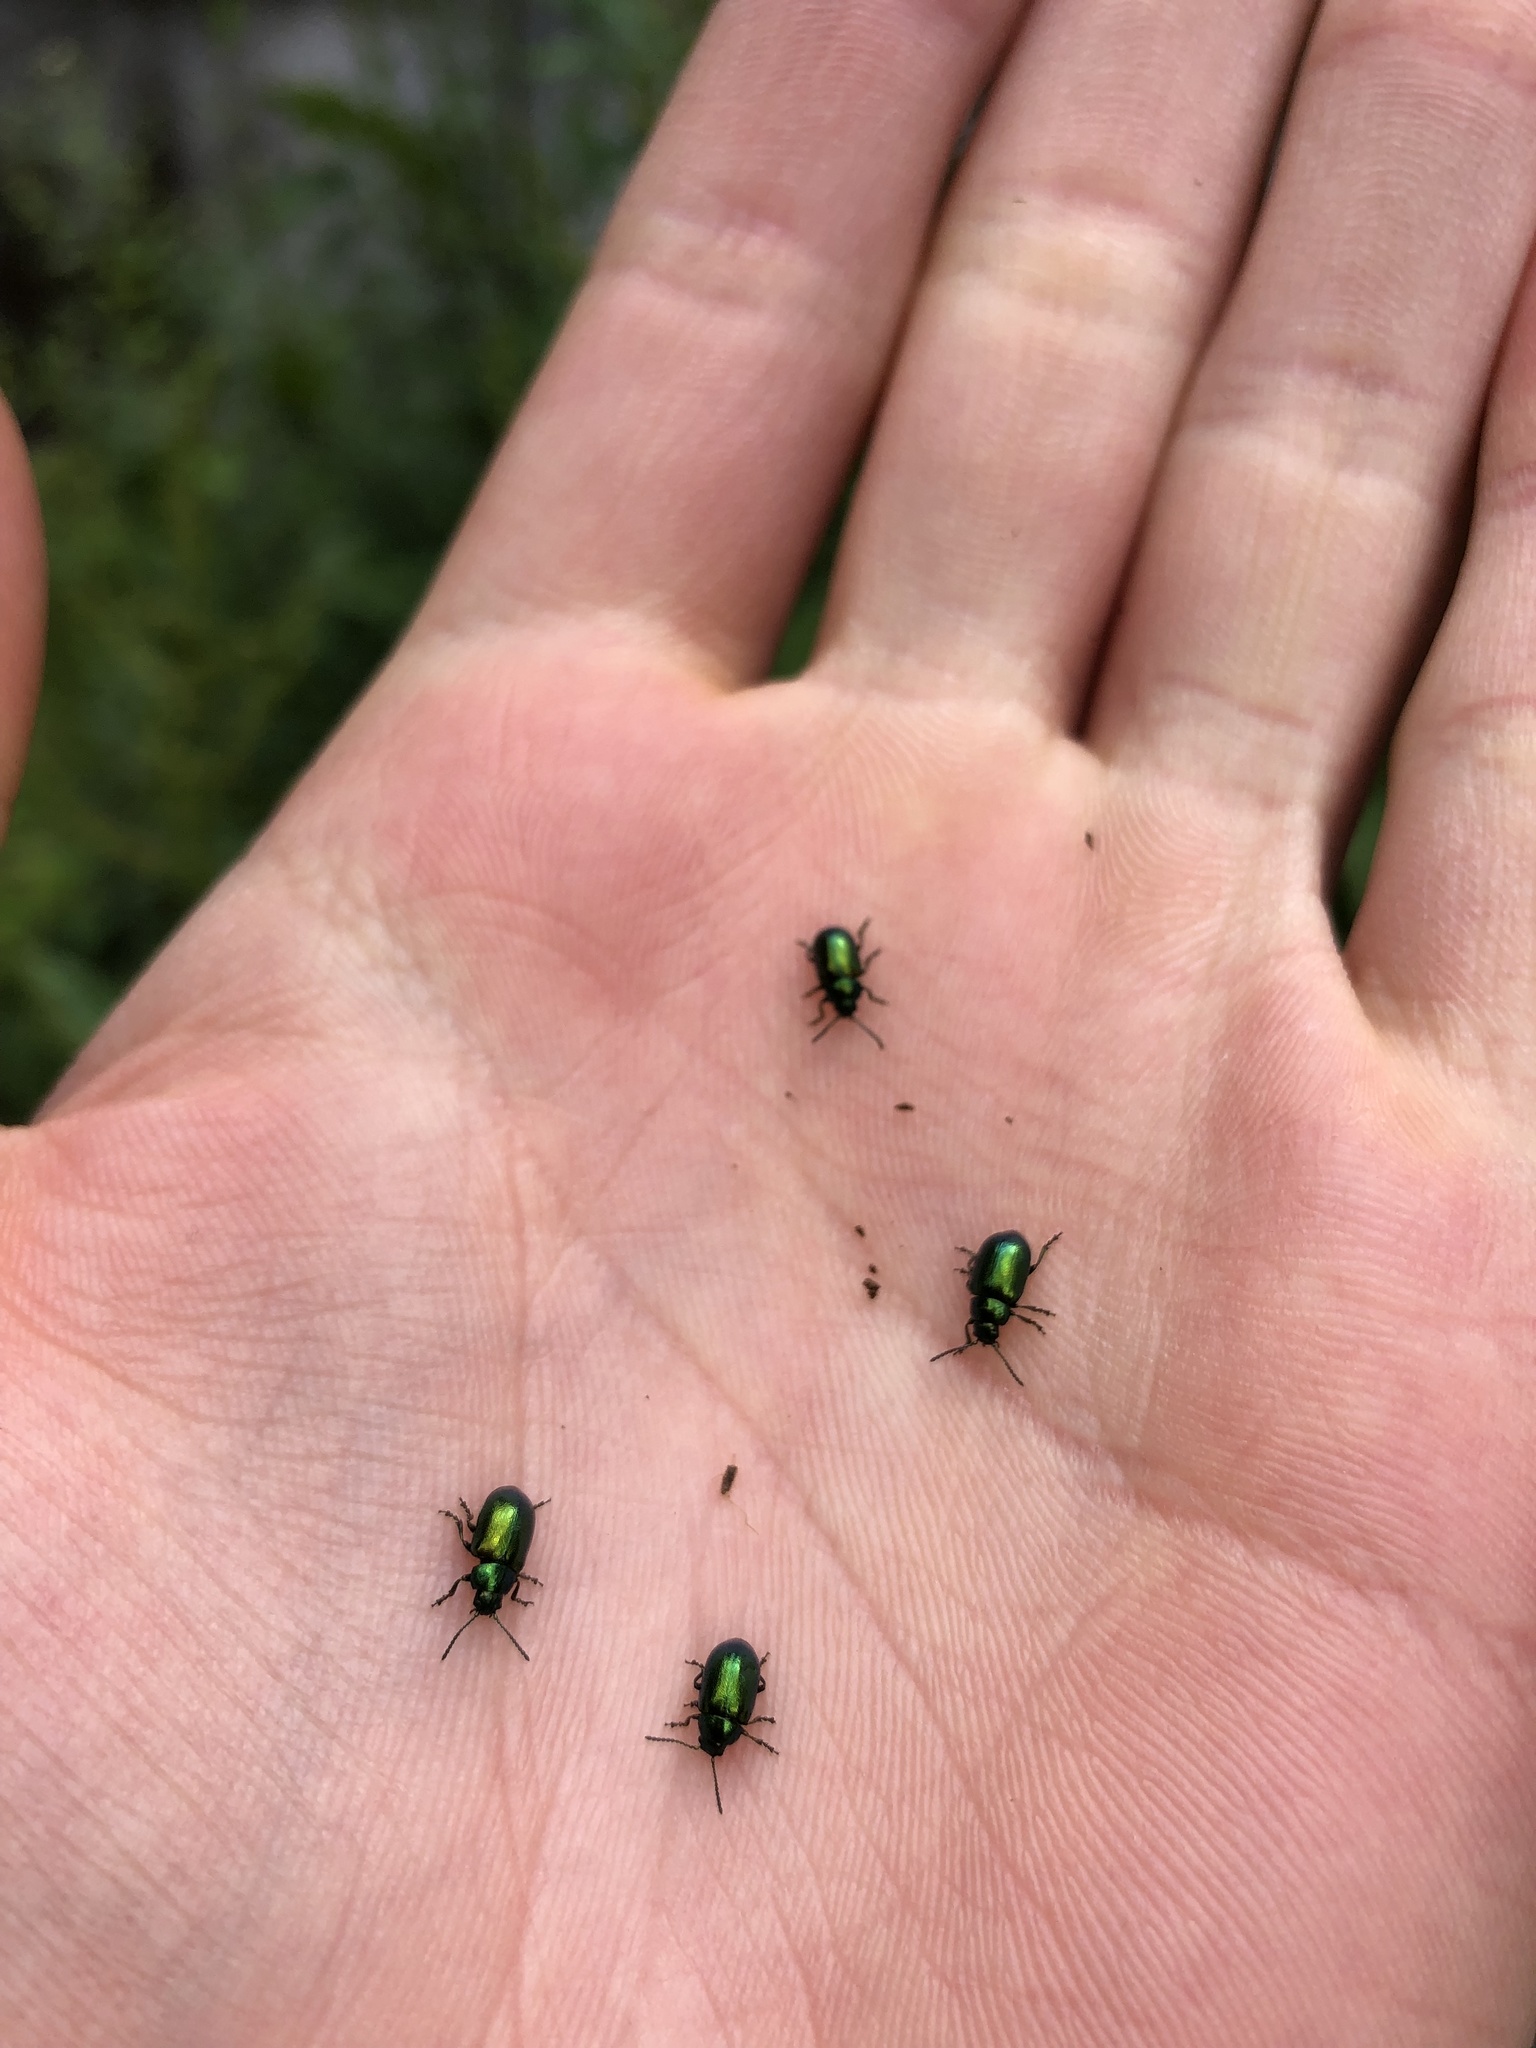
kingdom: Animalia
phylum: Arthropoda
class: Insecta
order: Coleoptera
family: Chrysomelidae
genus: Gastrophysa
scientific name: Gastrophysa viridula
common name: Green dock beetle
